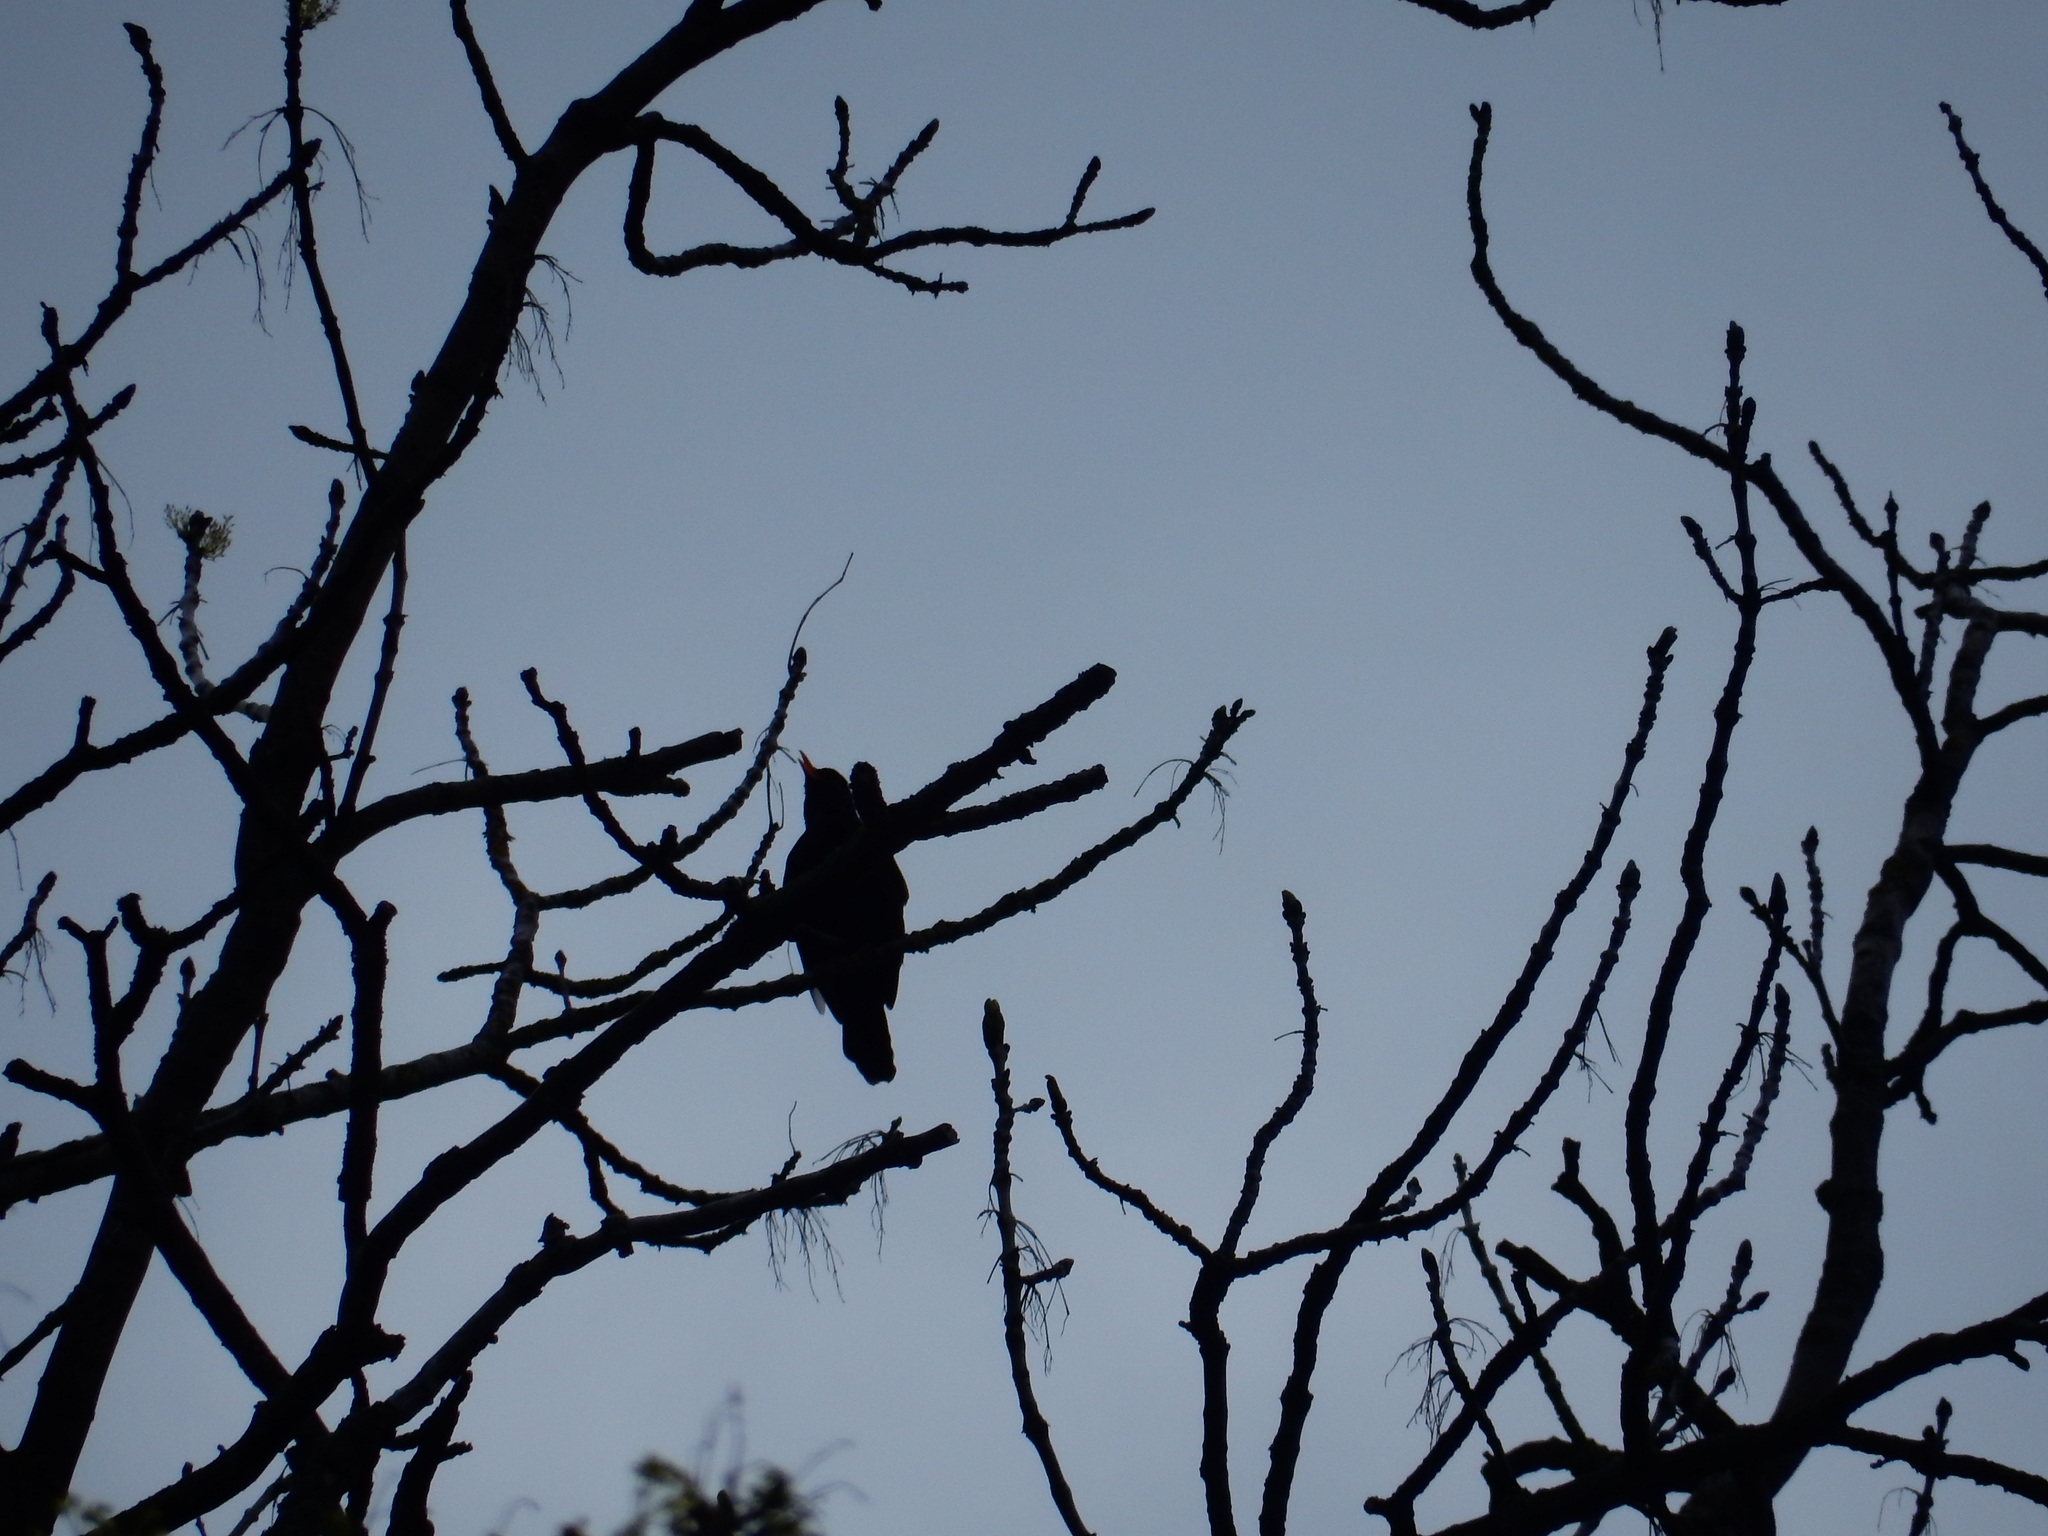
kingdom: Animalia
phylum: Chordata
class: Aves
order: Passeriformes
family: Turdidae
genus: Turdus
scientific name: Turdus merula
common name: Common blackbird
